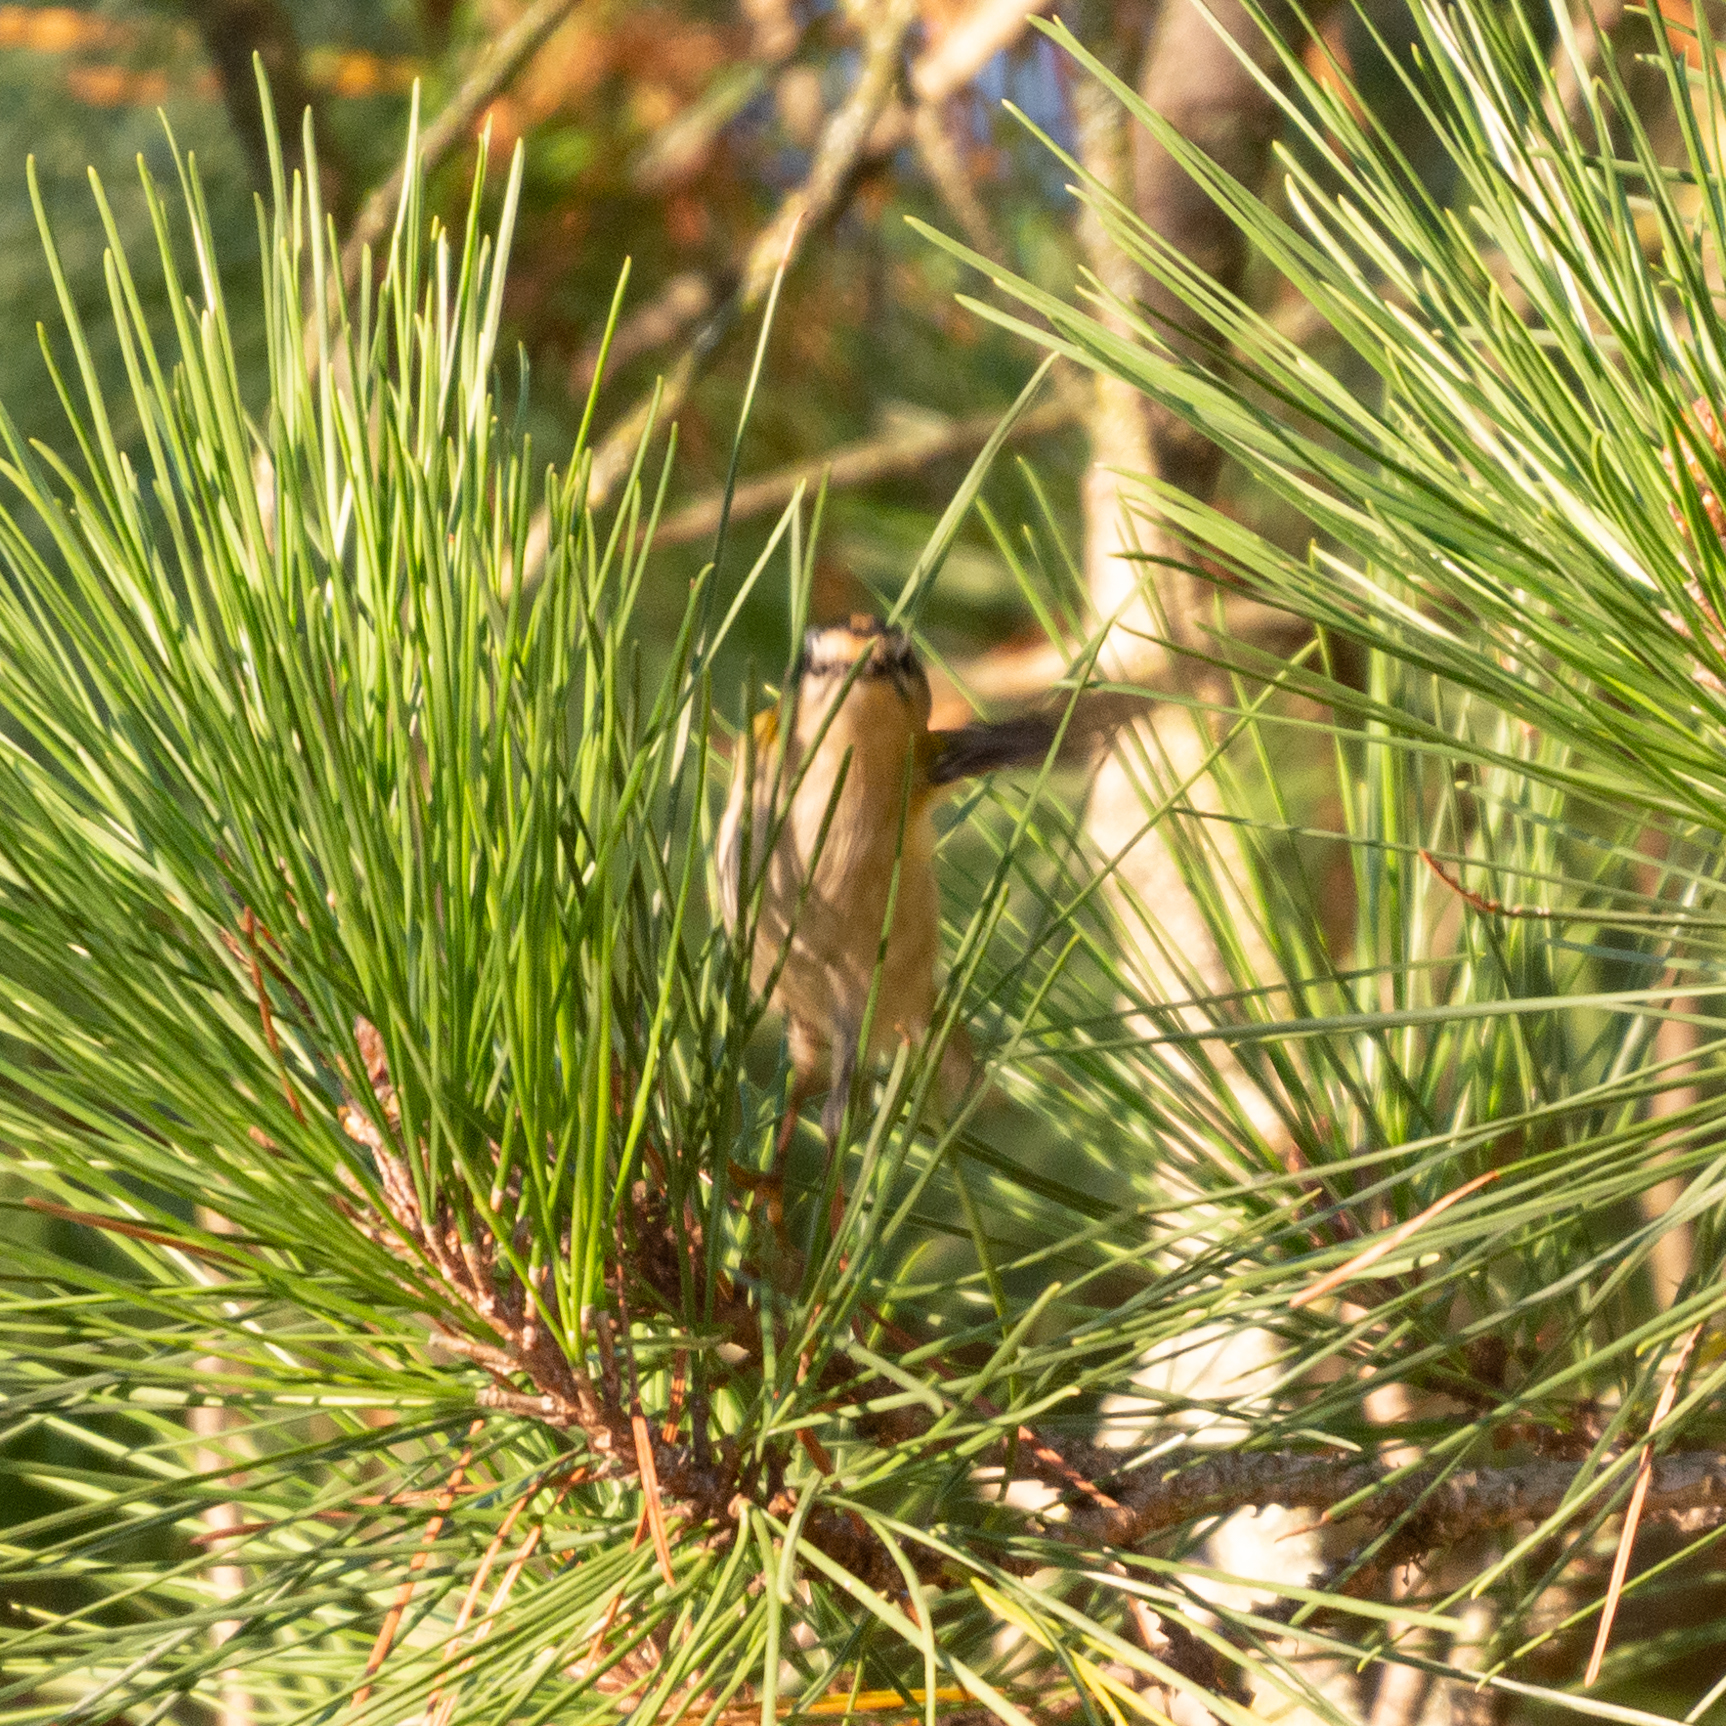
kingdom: Animalia
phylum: Chordata
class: Aves
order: Passeriformes
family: Regulidae
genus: Regulus
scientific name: Regulus ignicapilla
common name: Firecrest
